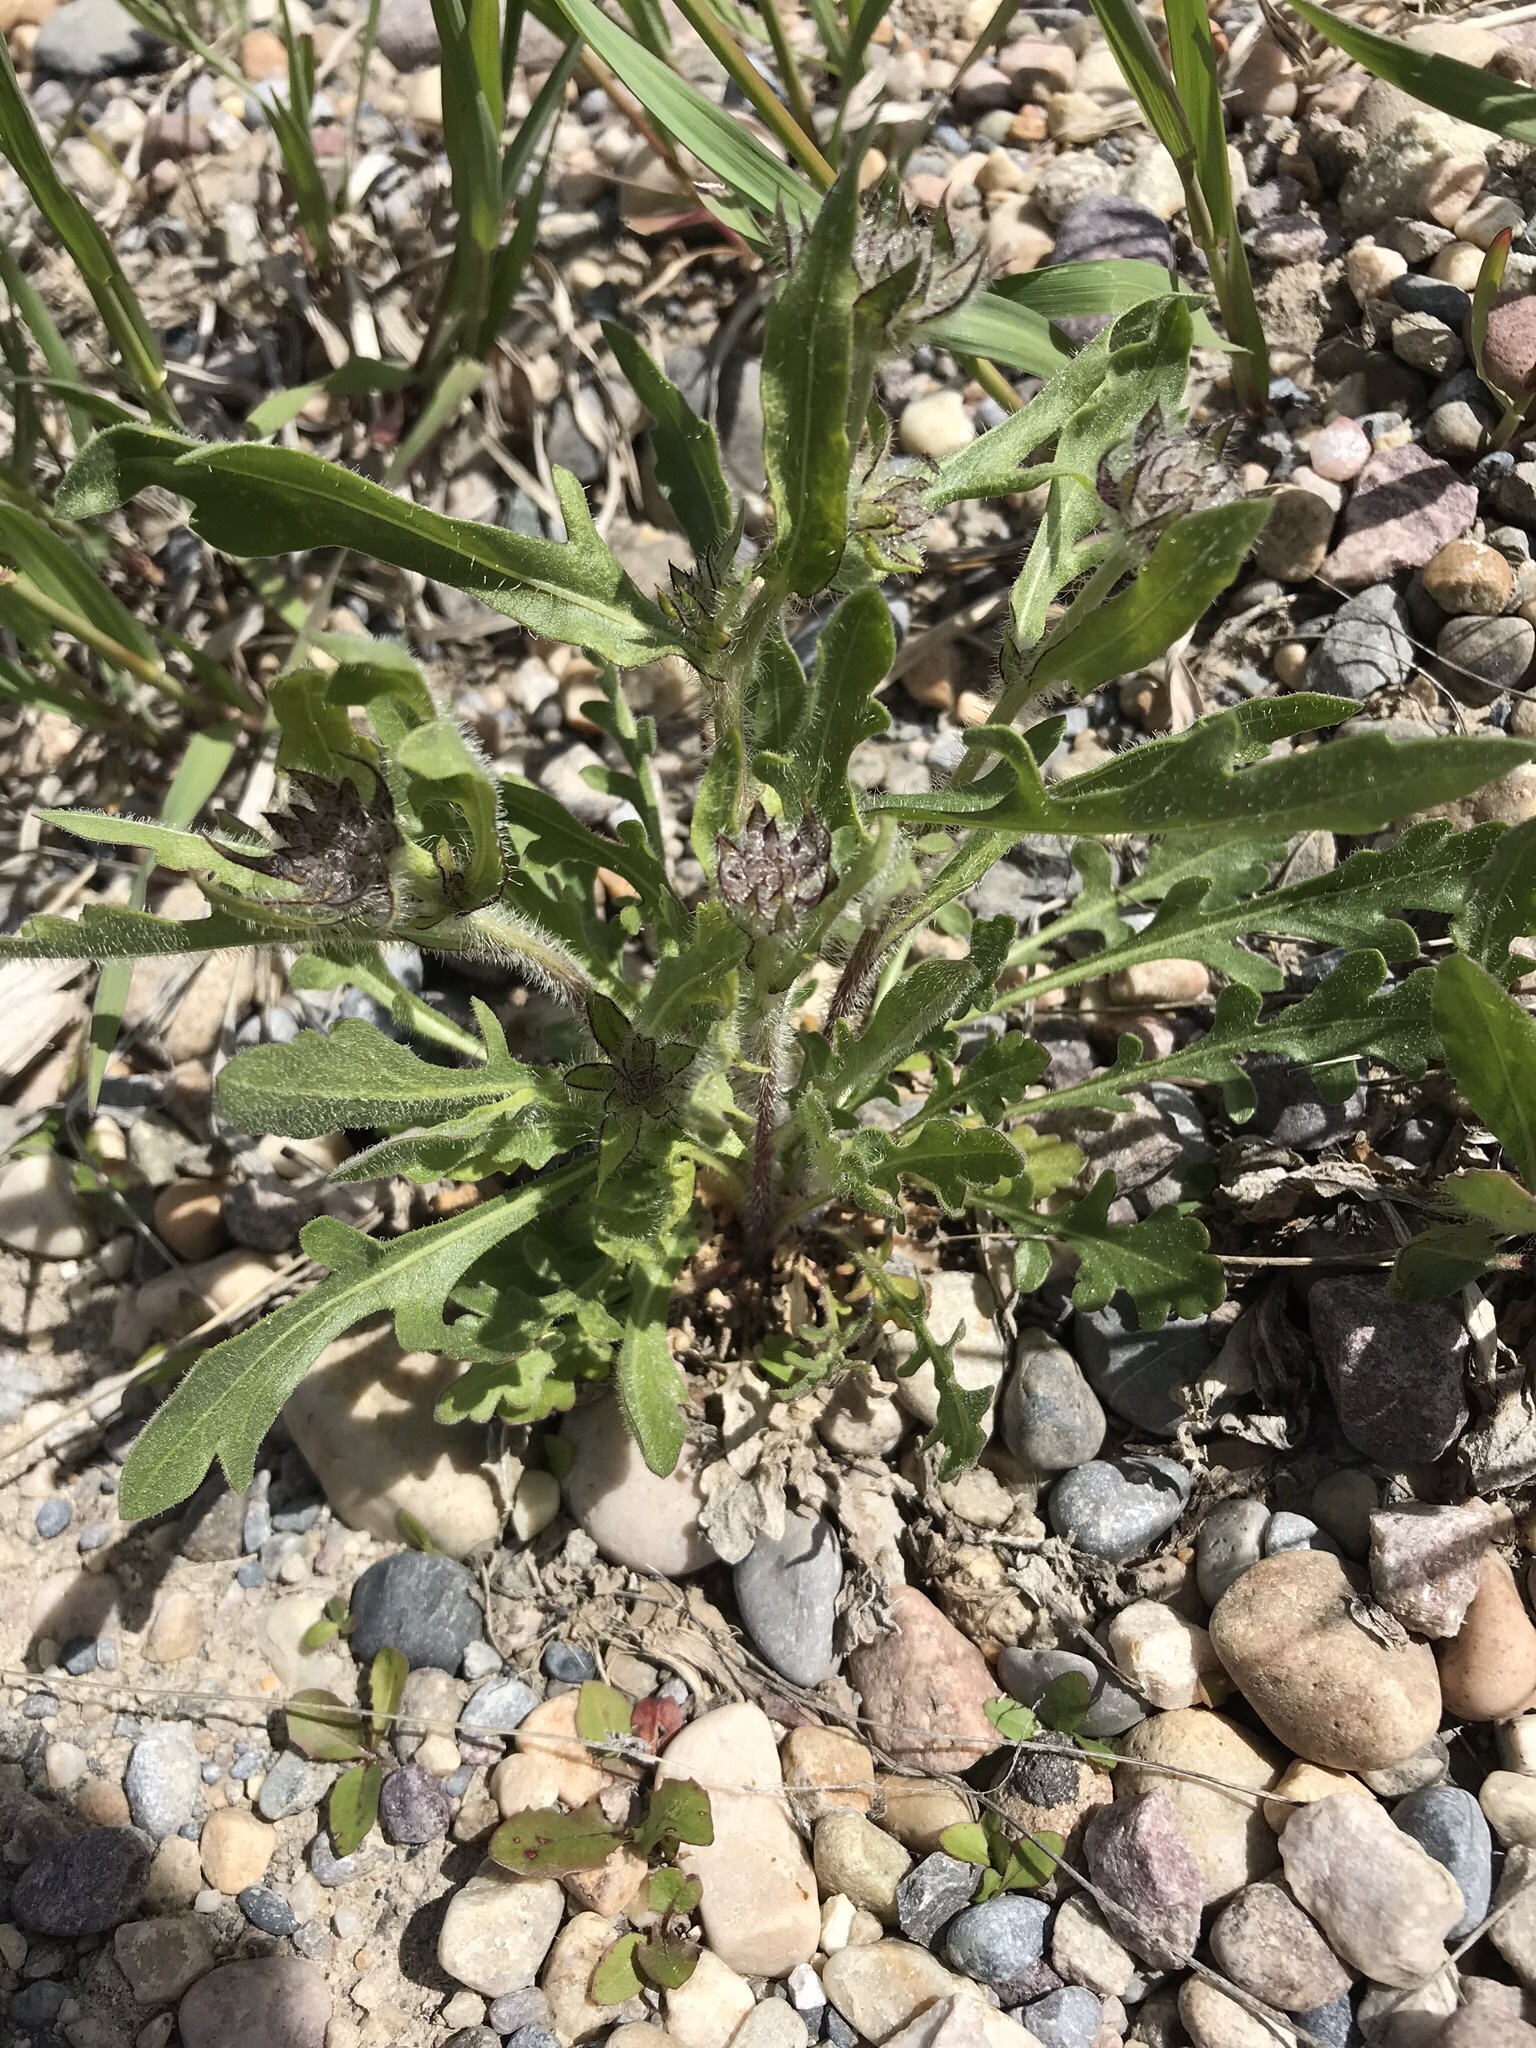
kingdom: Plantae
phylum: Tracheophyta
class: Magnoliopsida
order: Asterales
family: Asteraceae
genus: Gaillardia
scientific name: Gaillardia aristata
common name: Blanket-flower
